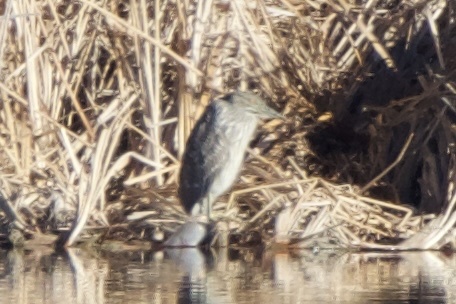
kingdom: Animalia
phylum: Chordata
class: Aves
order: Pelecaniformes
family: Ardeidae
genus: Nycticorax
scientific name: Nycticorax nycticorax
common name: Black-crowned night heron
